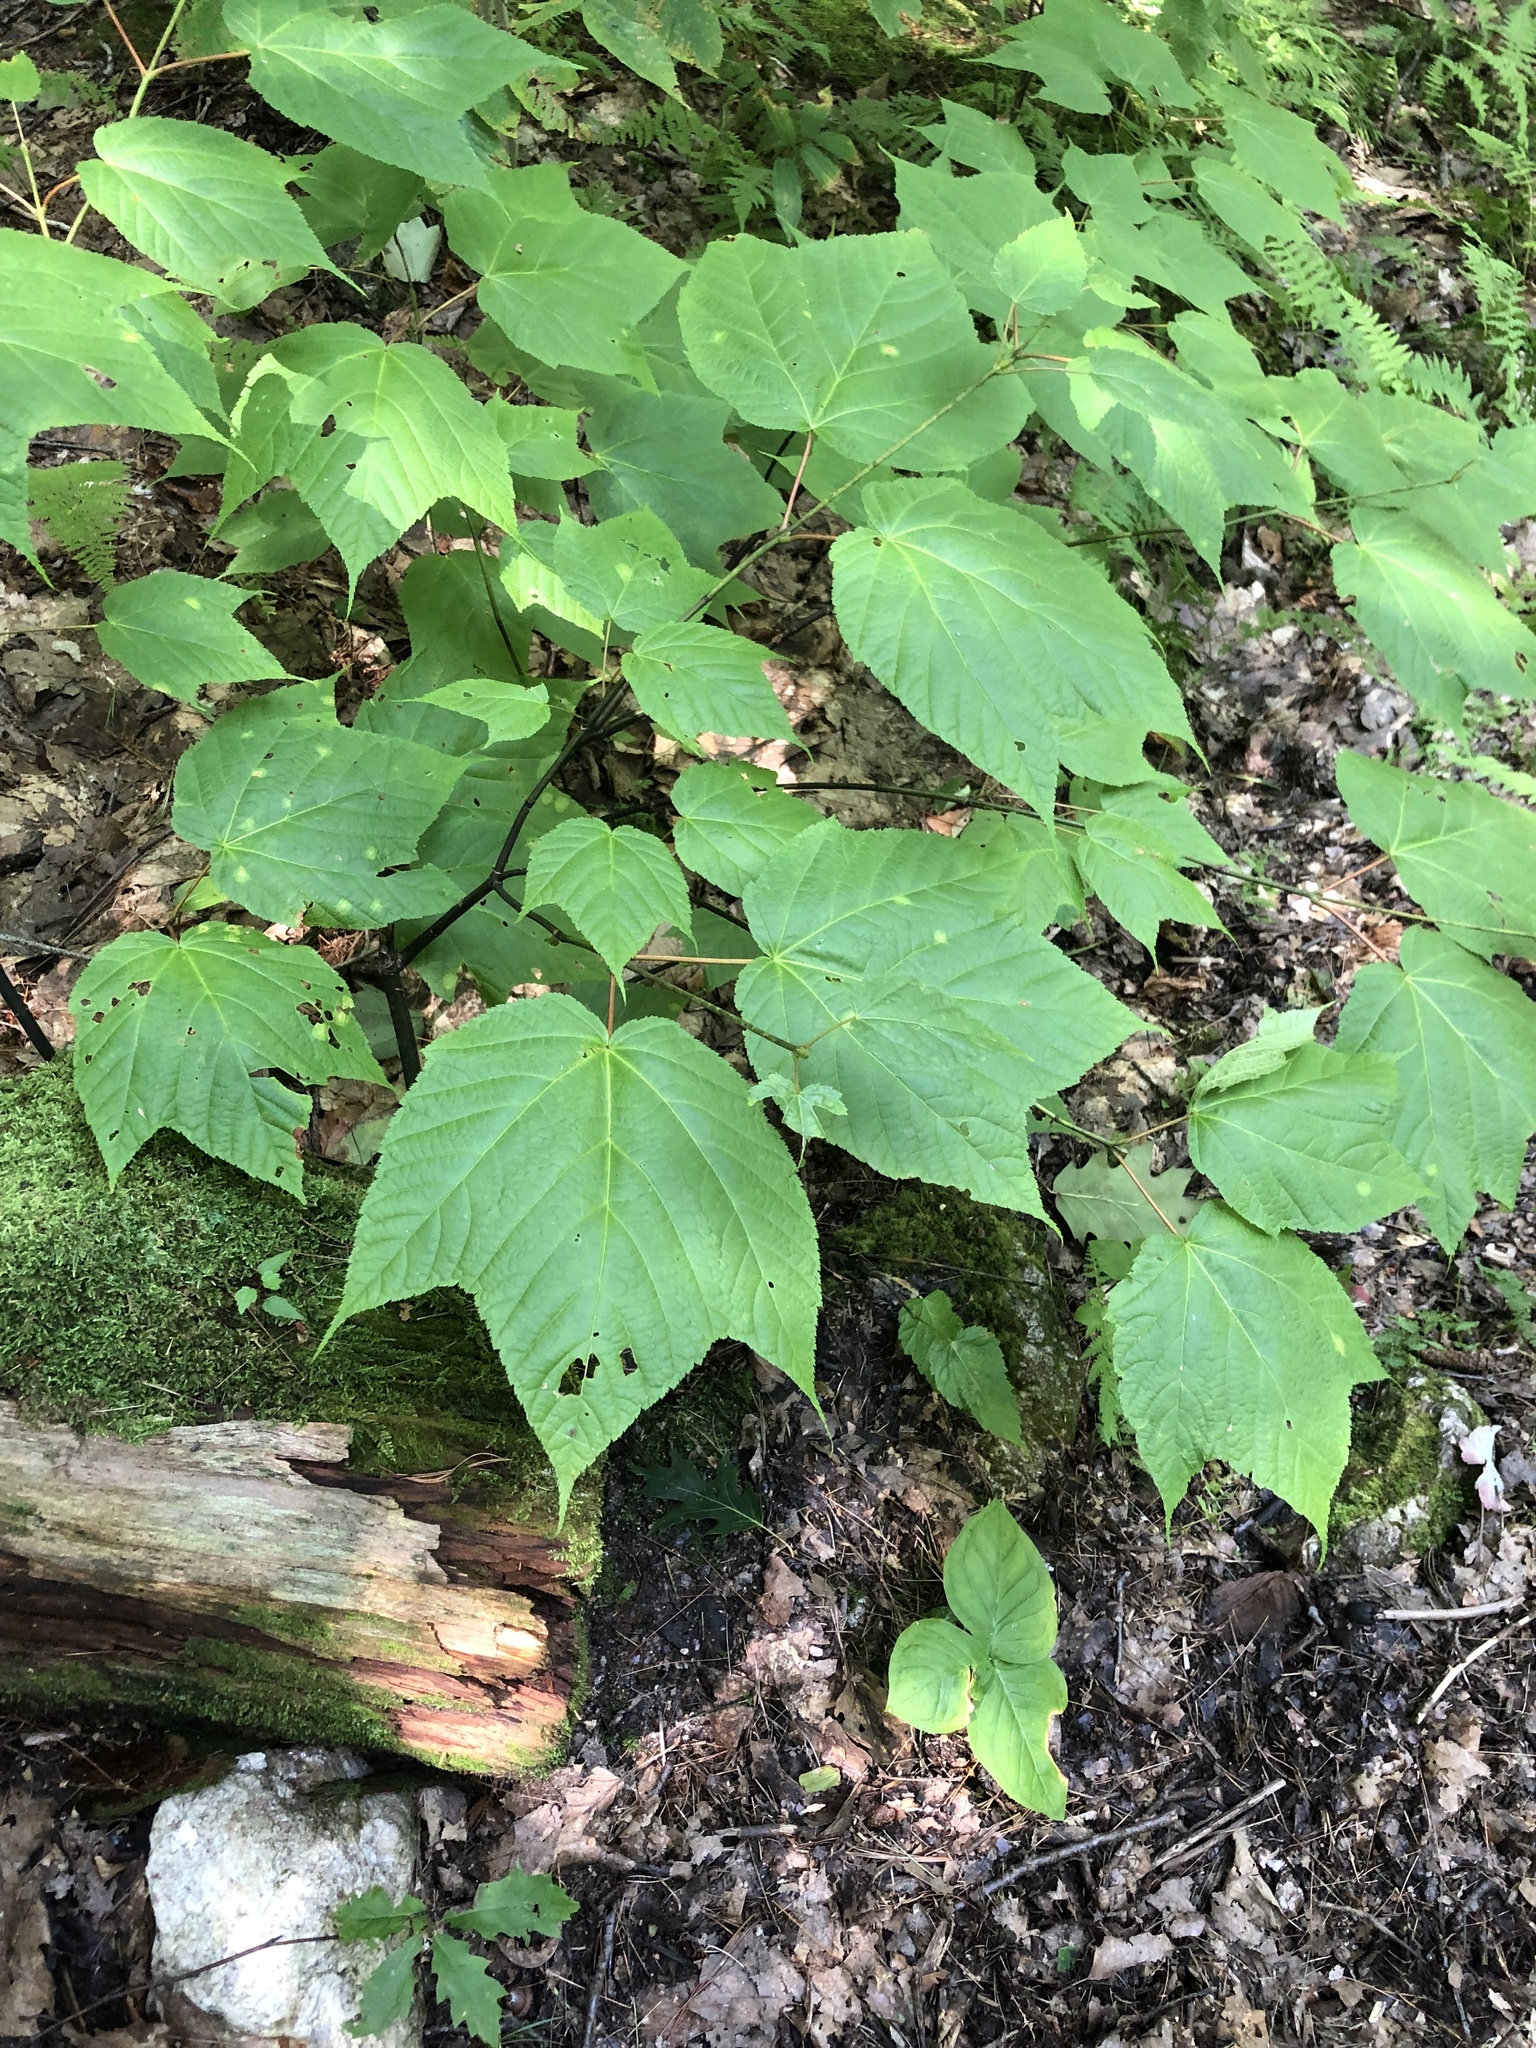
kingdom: Plantae
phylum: Tracheophyta
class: Magnoliopsida
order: Sapindales
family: Sapindaceae
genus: Acer
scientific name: Acer pensylvanicum
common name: Moosewood
